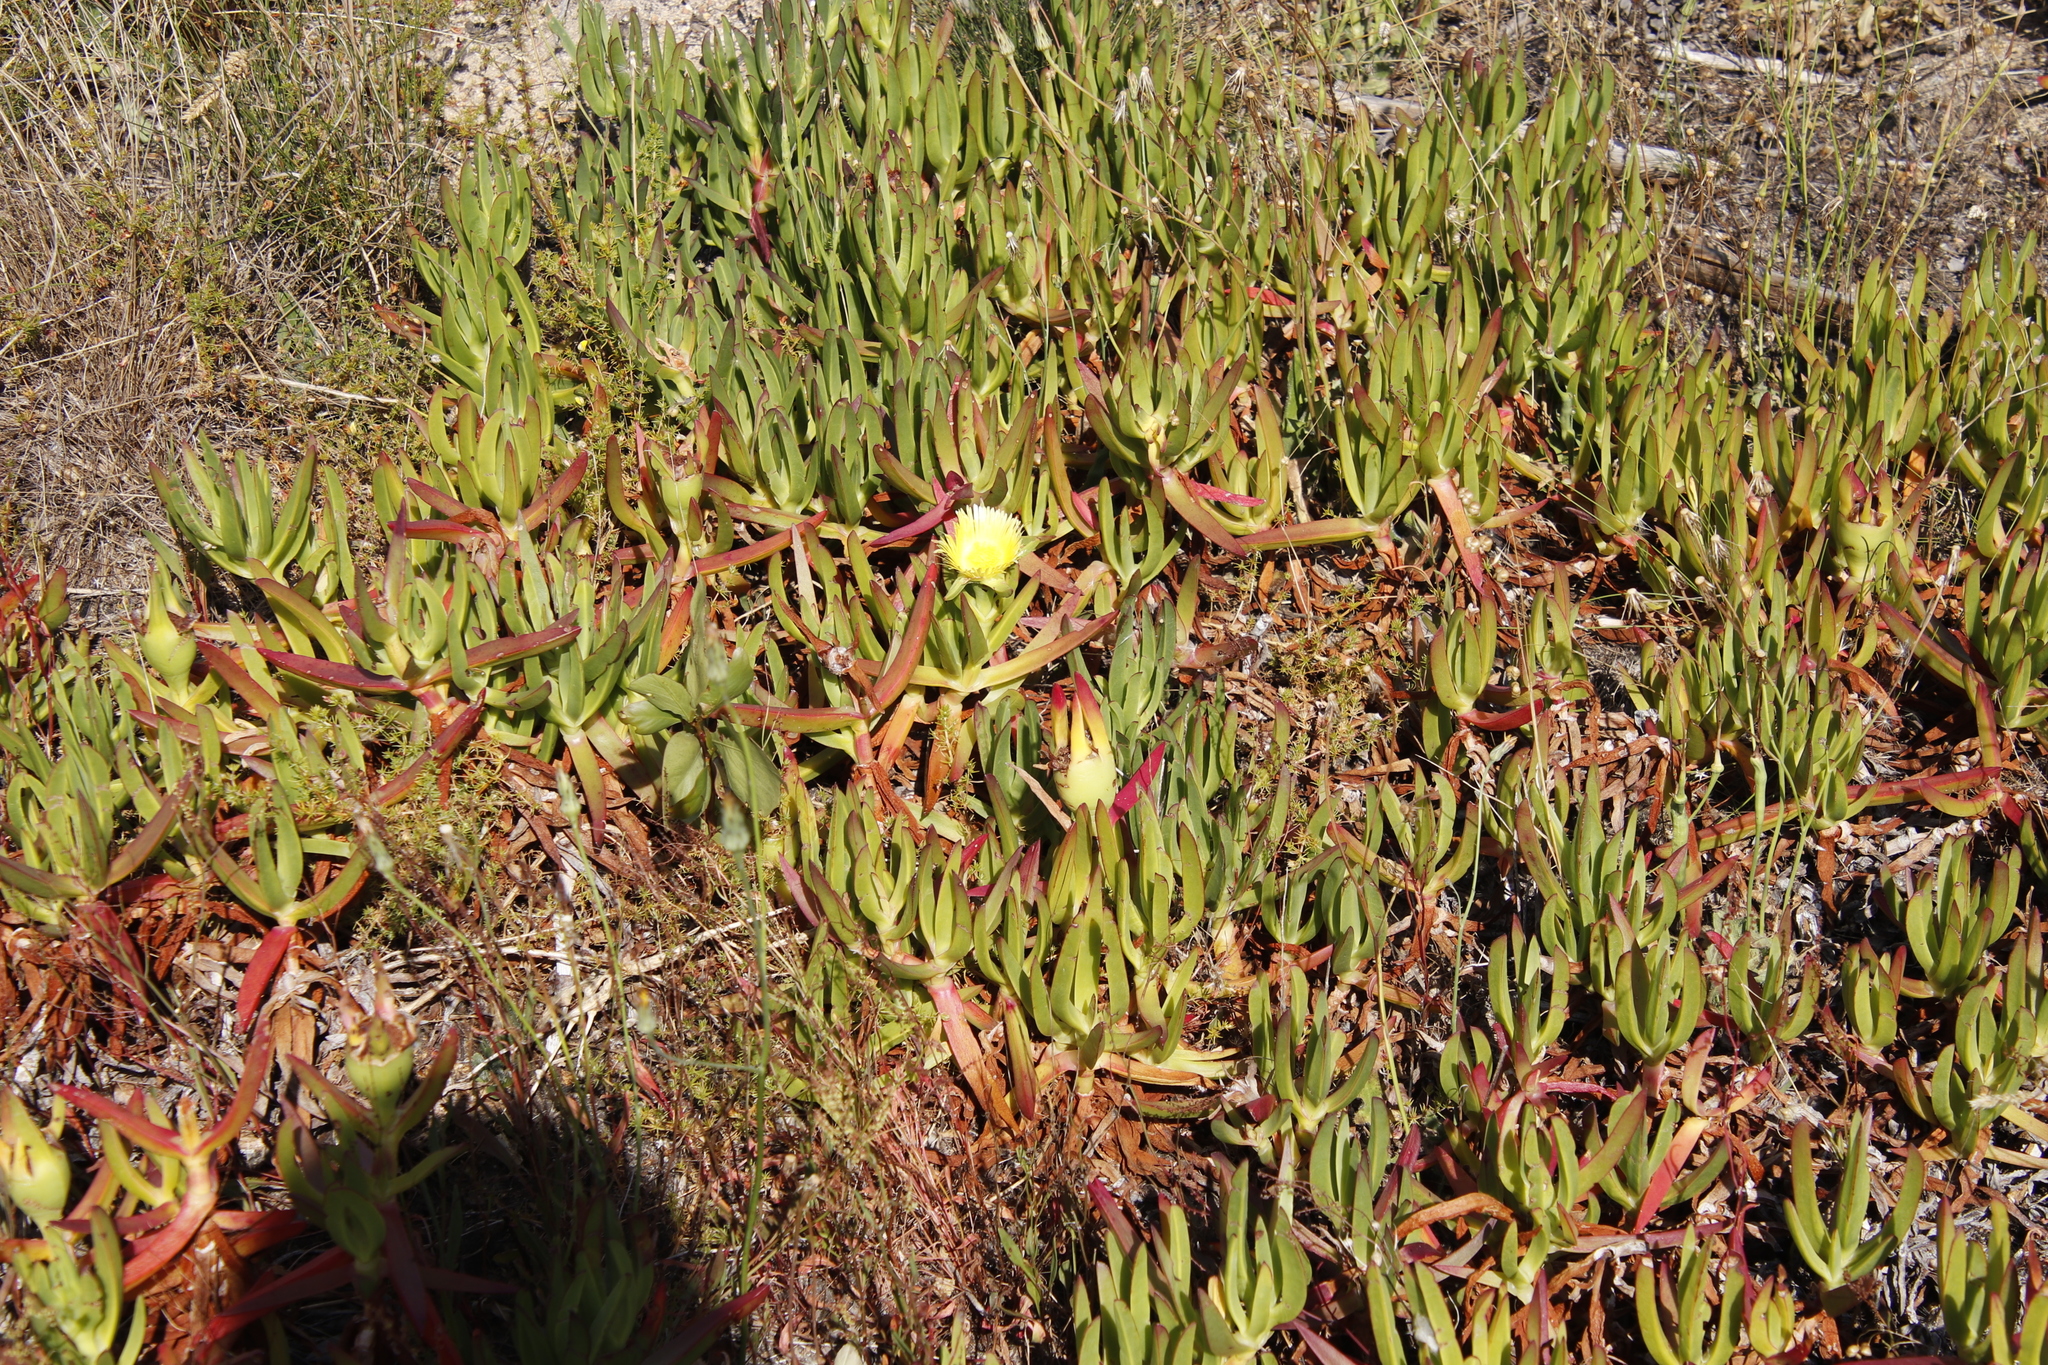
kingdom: Plantae
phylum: Tracheophyta
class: Magnoliopsida
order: Caryophyllales
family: Aizoaceae
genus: Carpobrotus
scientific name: Carpobrotus edulis
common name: Hottentot-fig
